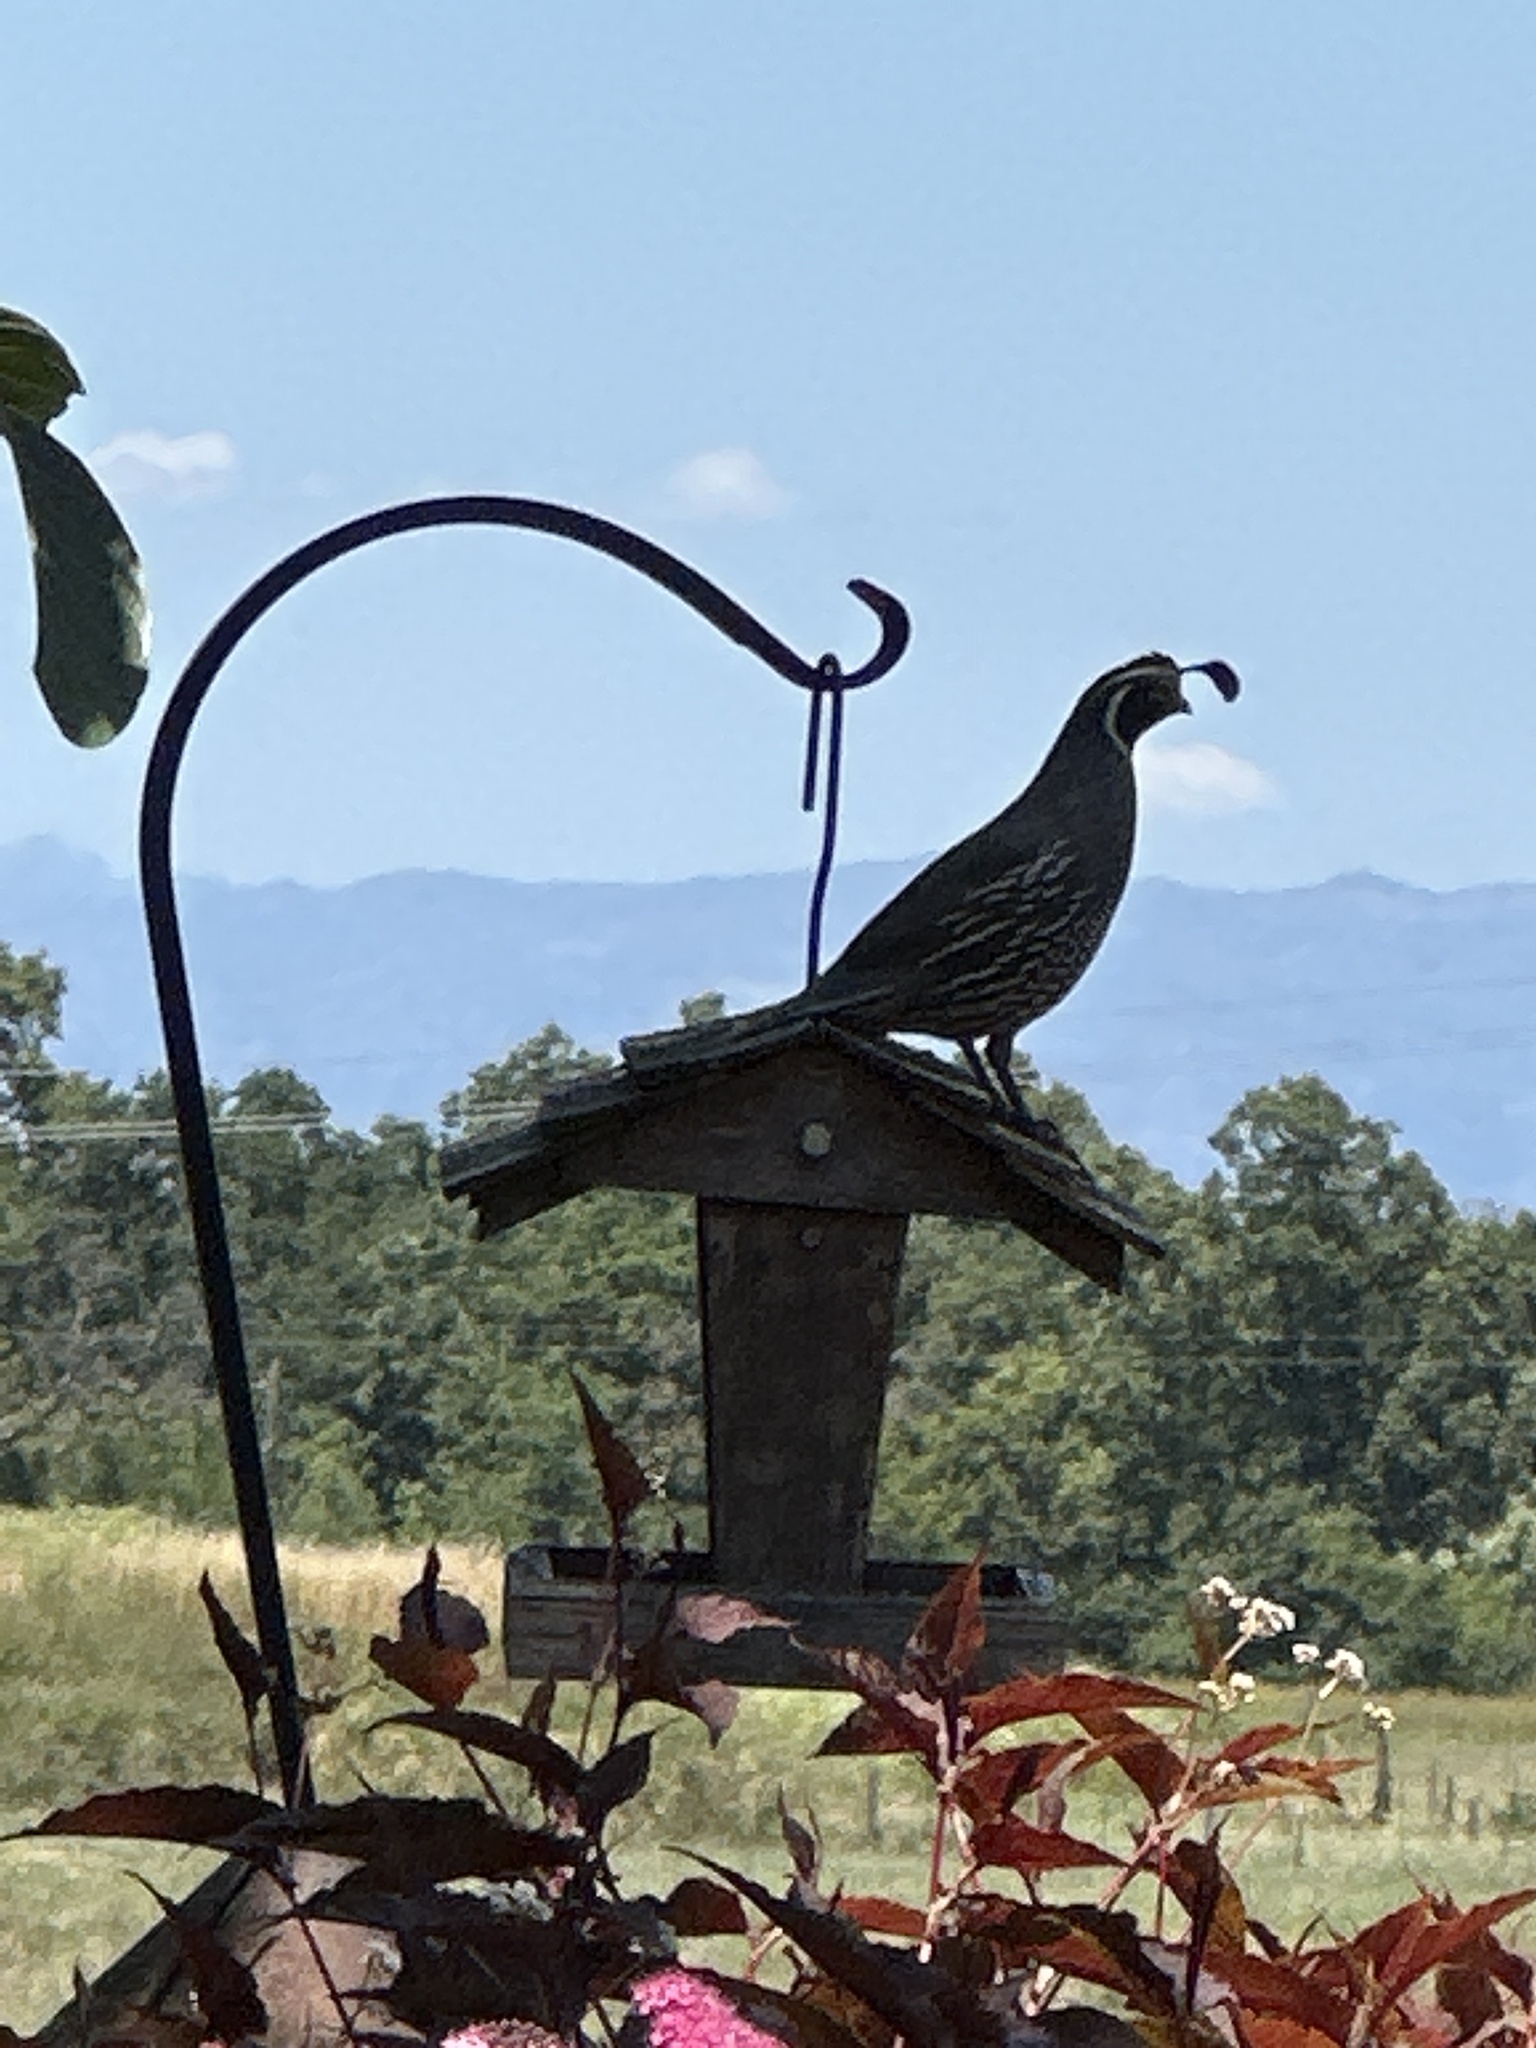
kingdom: Animalia
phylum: Chordata
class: Aves
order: Galliformes
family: Odontophoridae
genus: Callipepla
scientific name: Callipepla californica
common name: California quail
